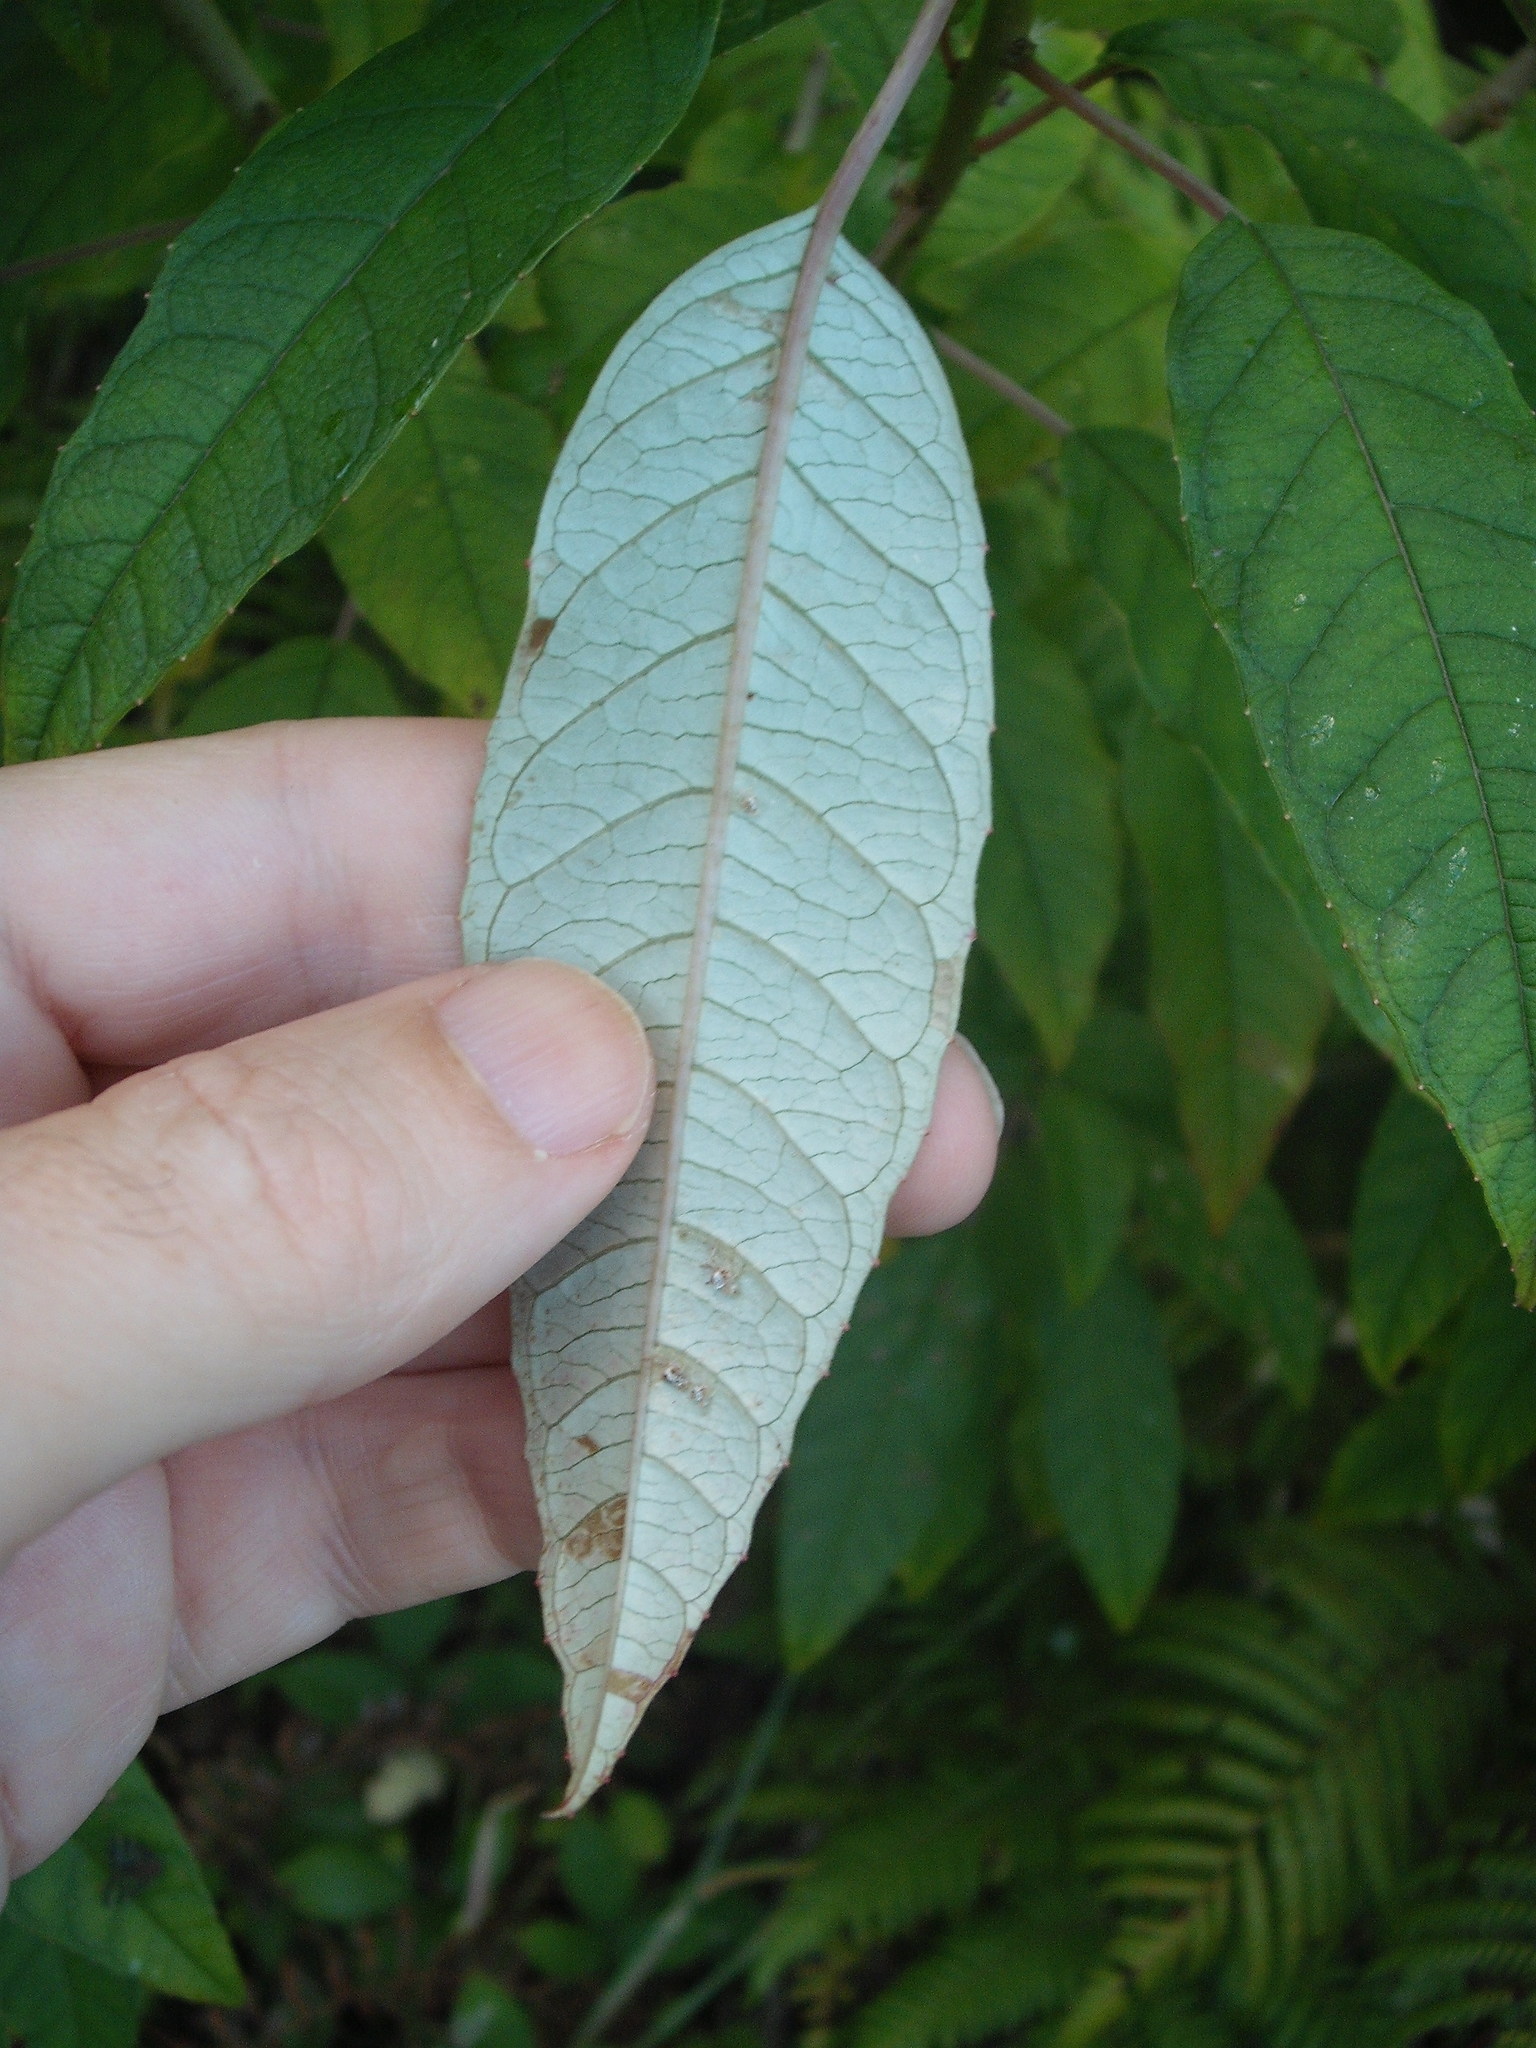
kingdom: Plantae
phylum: Tracheophyta
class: Magnoliopsida
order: Myrtales
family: Onagraceae
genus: Fuchsia
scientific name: Fuchsia excorticata
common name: Tree fuchsia
